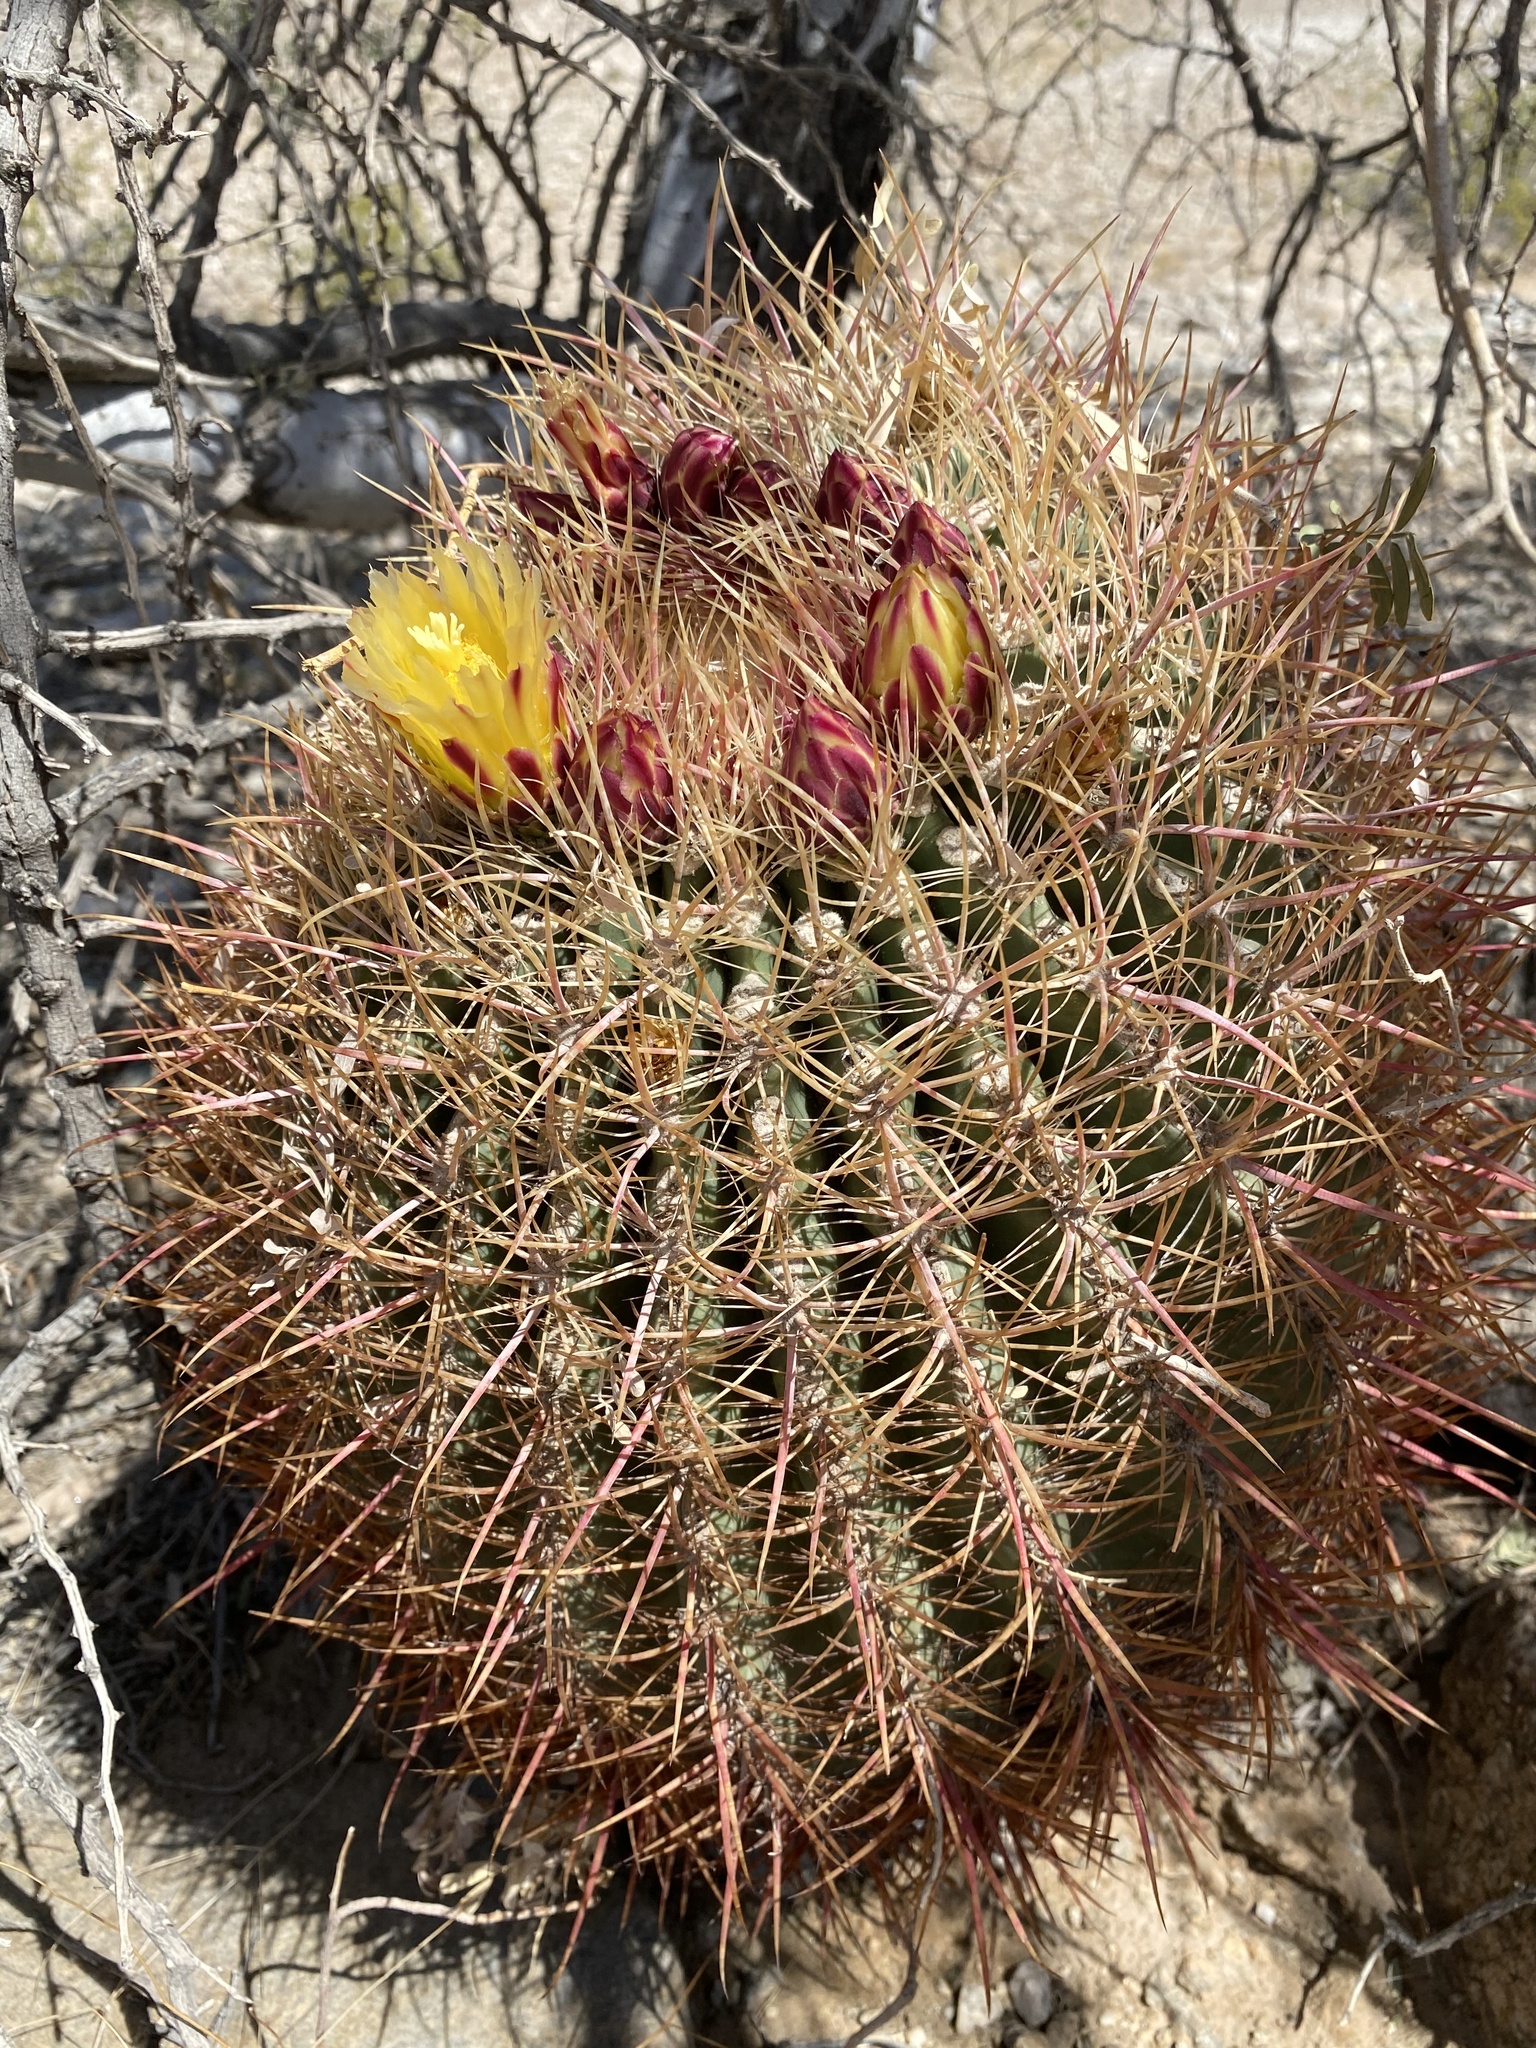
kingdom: Plantae
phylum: Tracheophyta
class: Magnoliopsida
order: Caryophyllales
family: Cactaceae
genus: Ferocactus
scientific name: Ferocactus cylindraceus
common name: California barrel cactus
